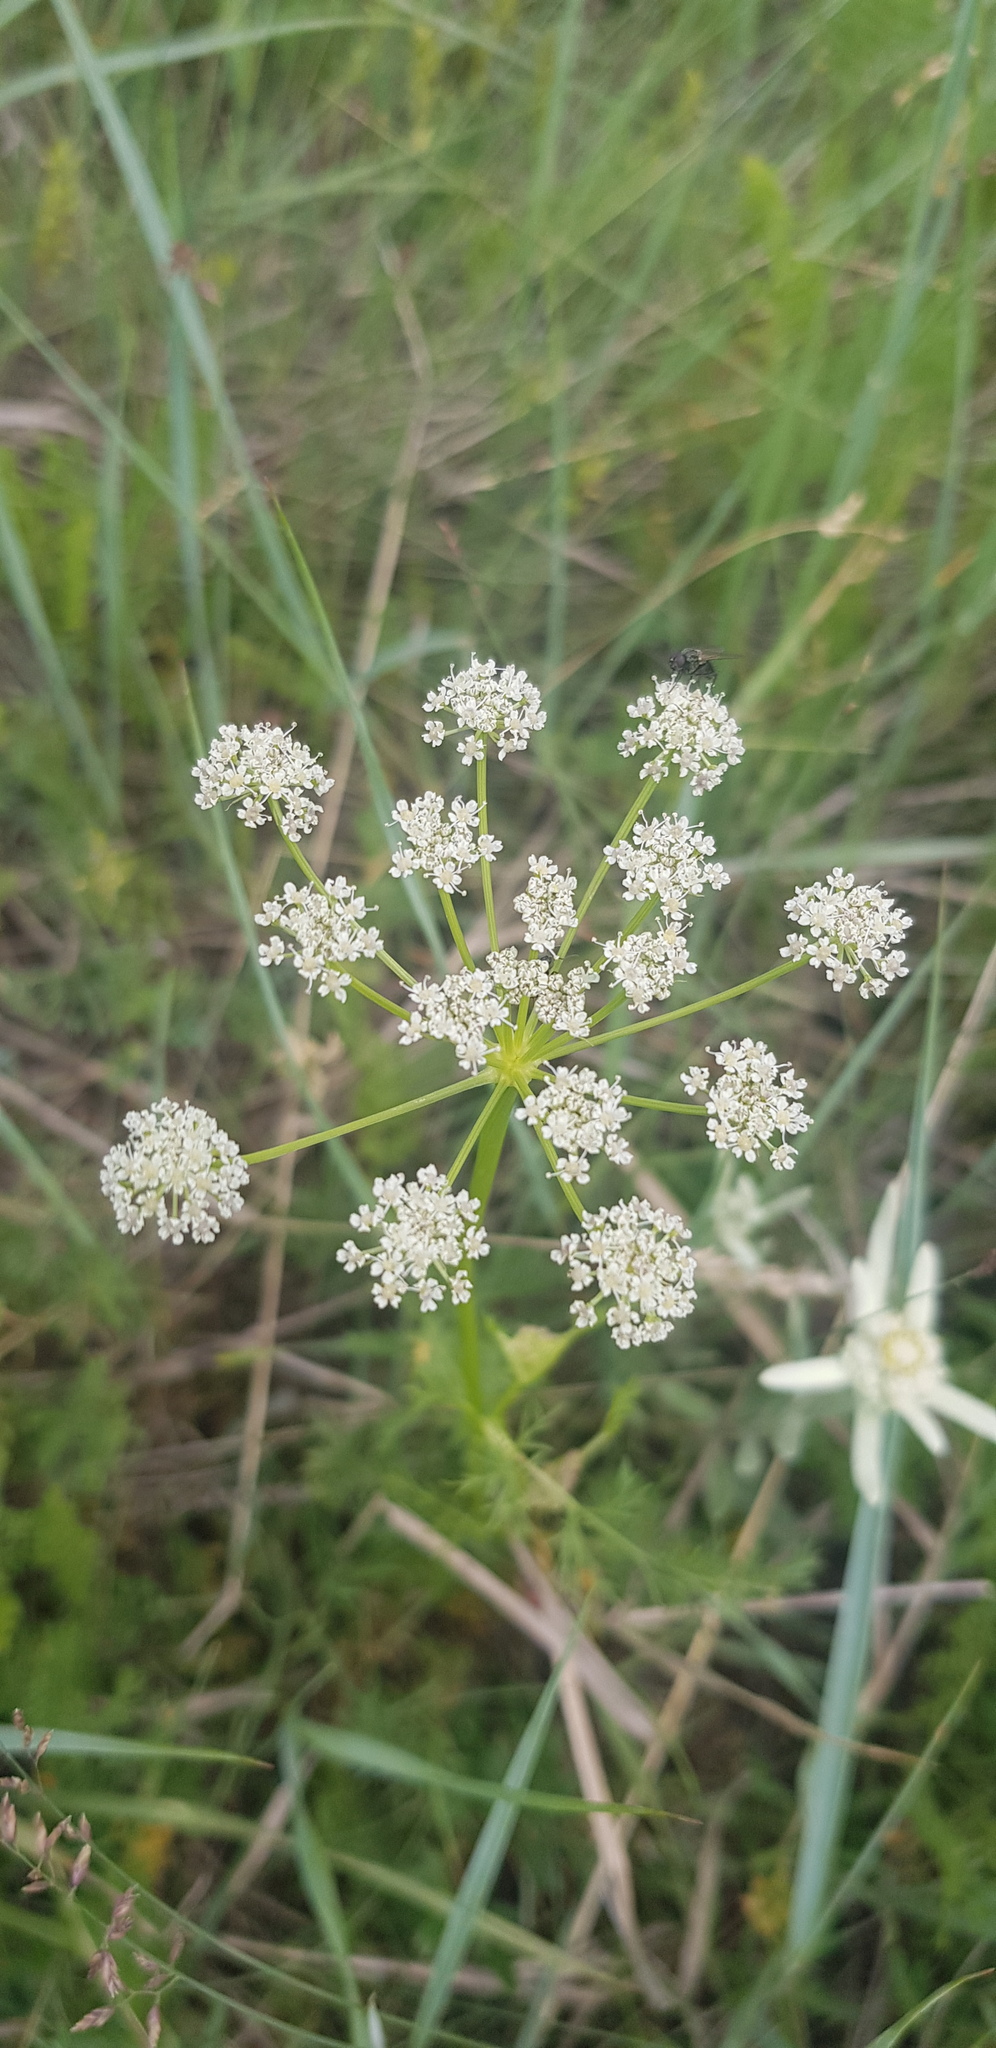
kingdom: Plantae
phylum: Tracheophyta
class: Magnoliopsida
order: Apiales
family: Apiaceae
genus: Carum
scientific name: Carum carvi
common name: Caraway
